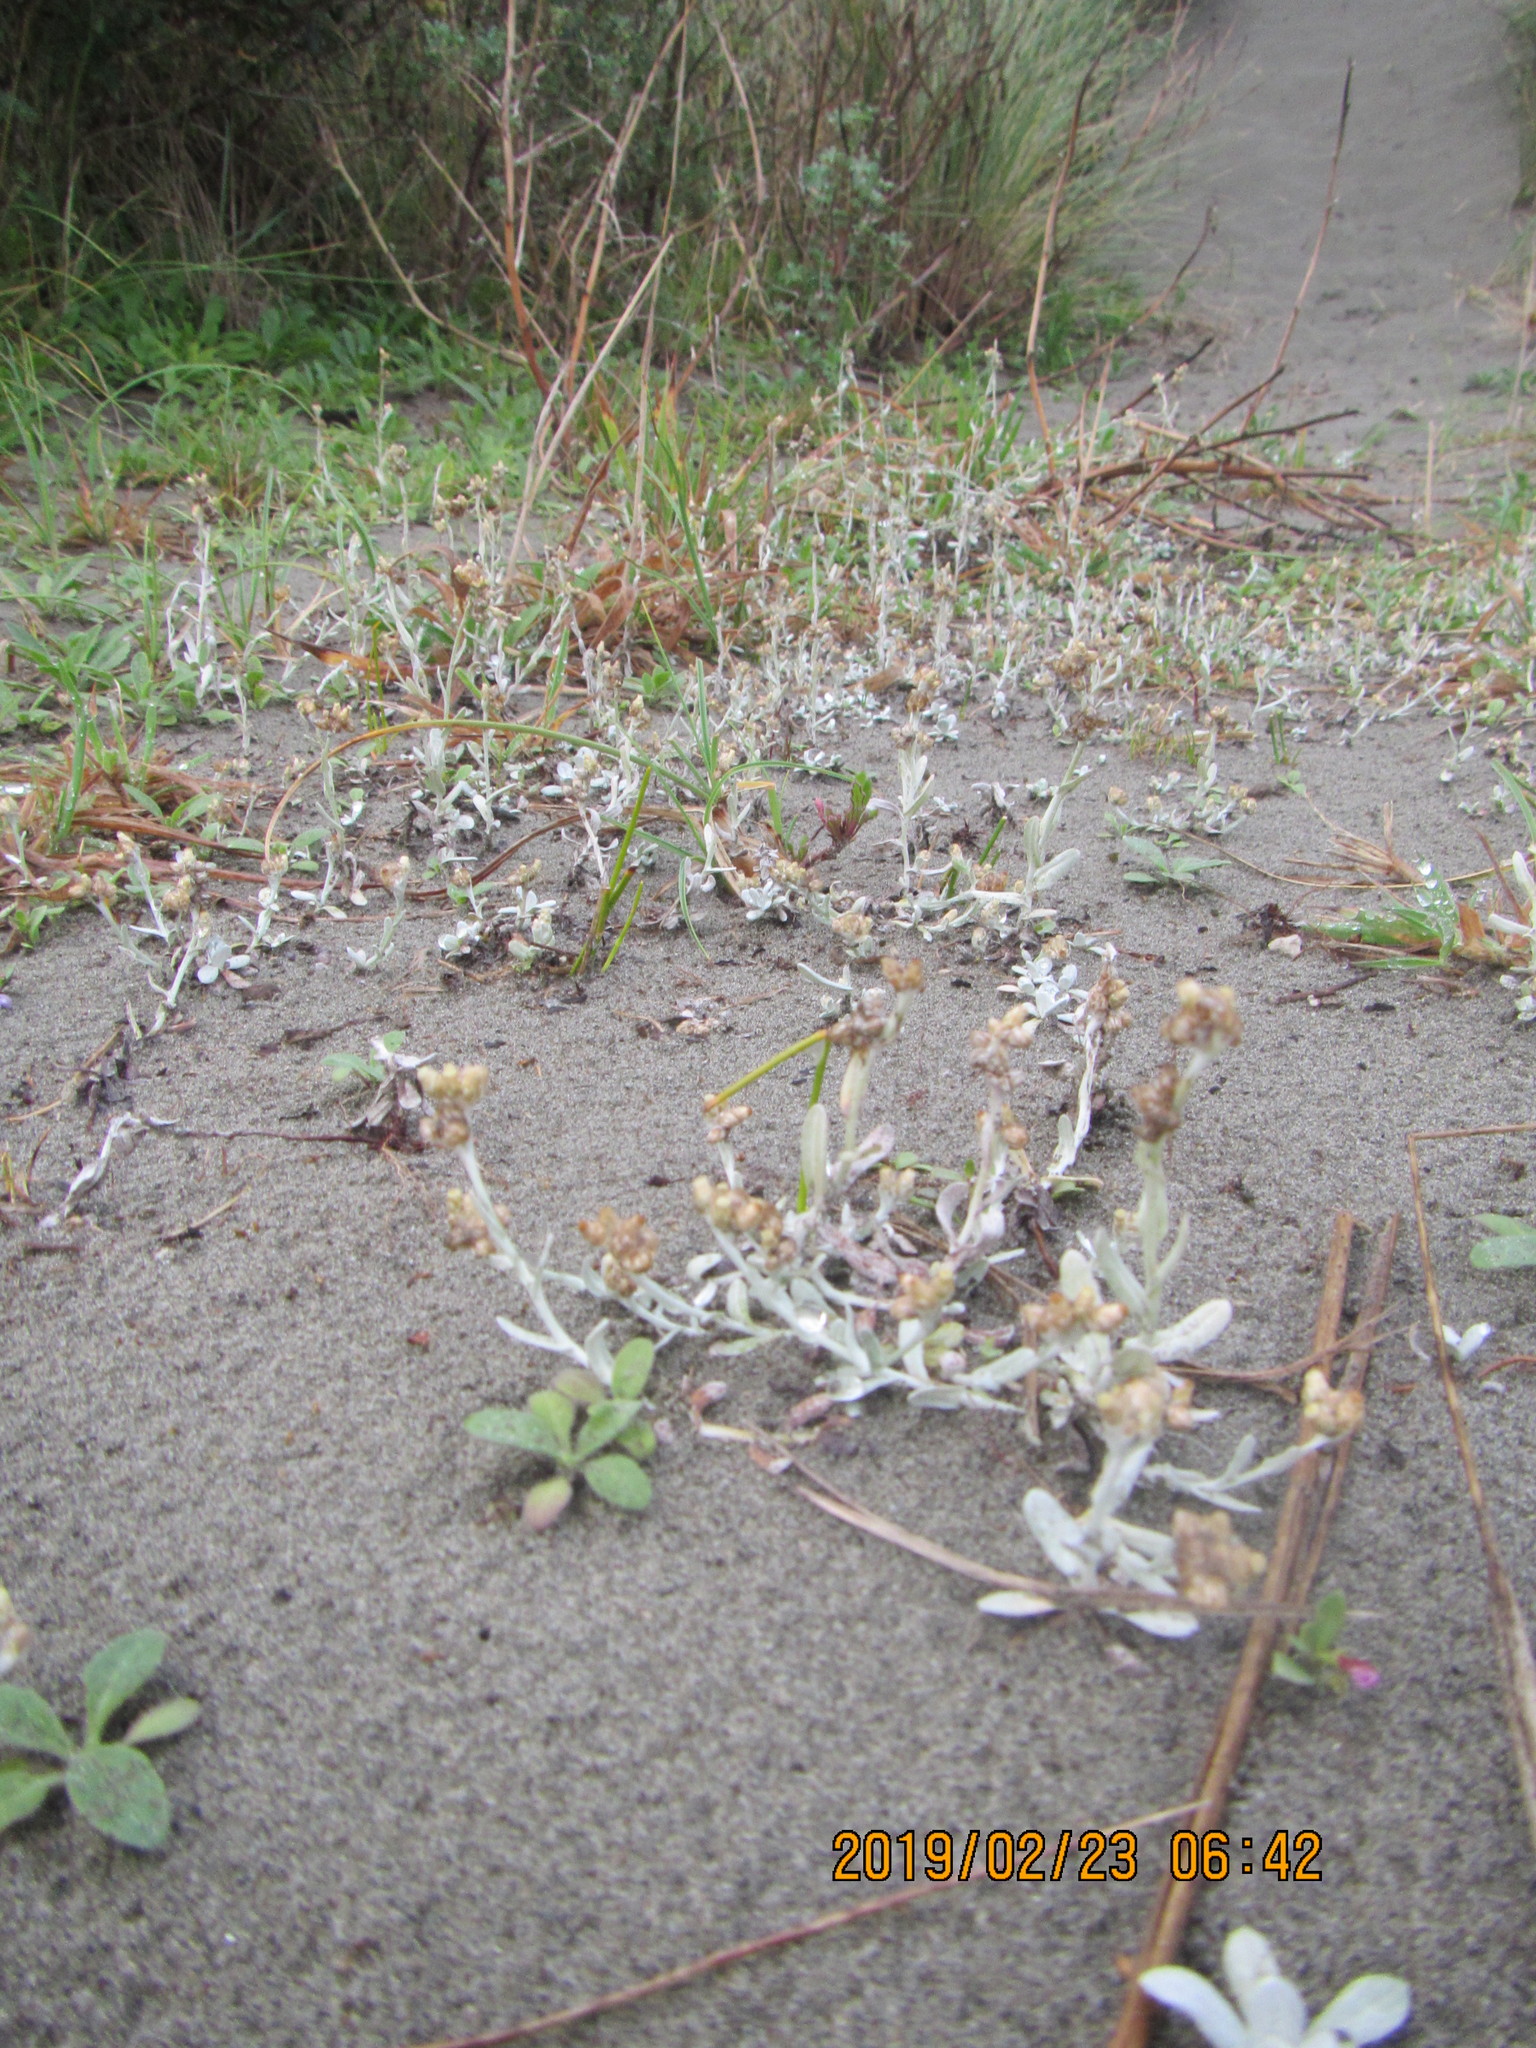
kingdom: Plantae
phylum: Tracheophyta
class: Magnoliopsida
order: Asterales
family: Asteraceae
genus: Helichrysum
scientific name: Helichrysum luteoalbum
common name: Daisy
